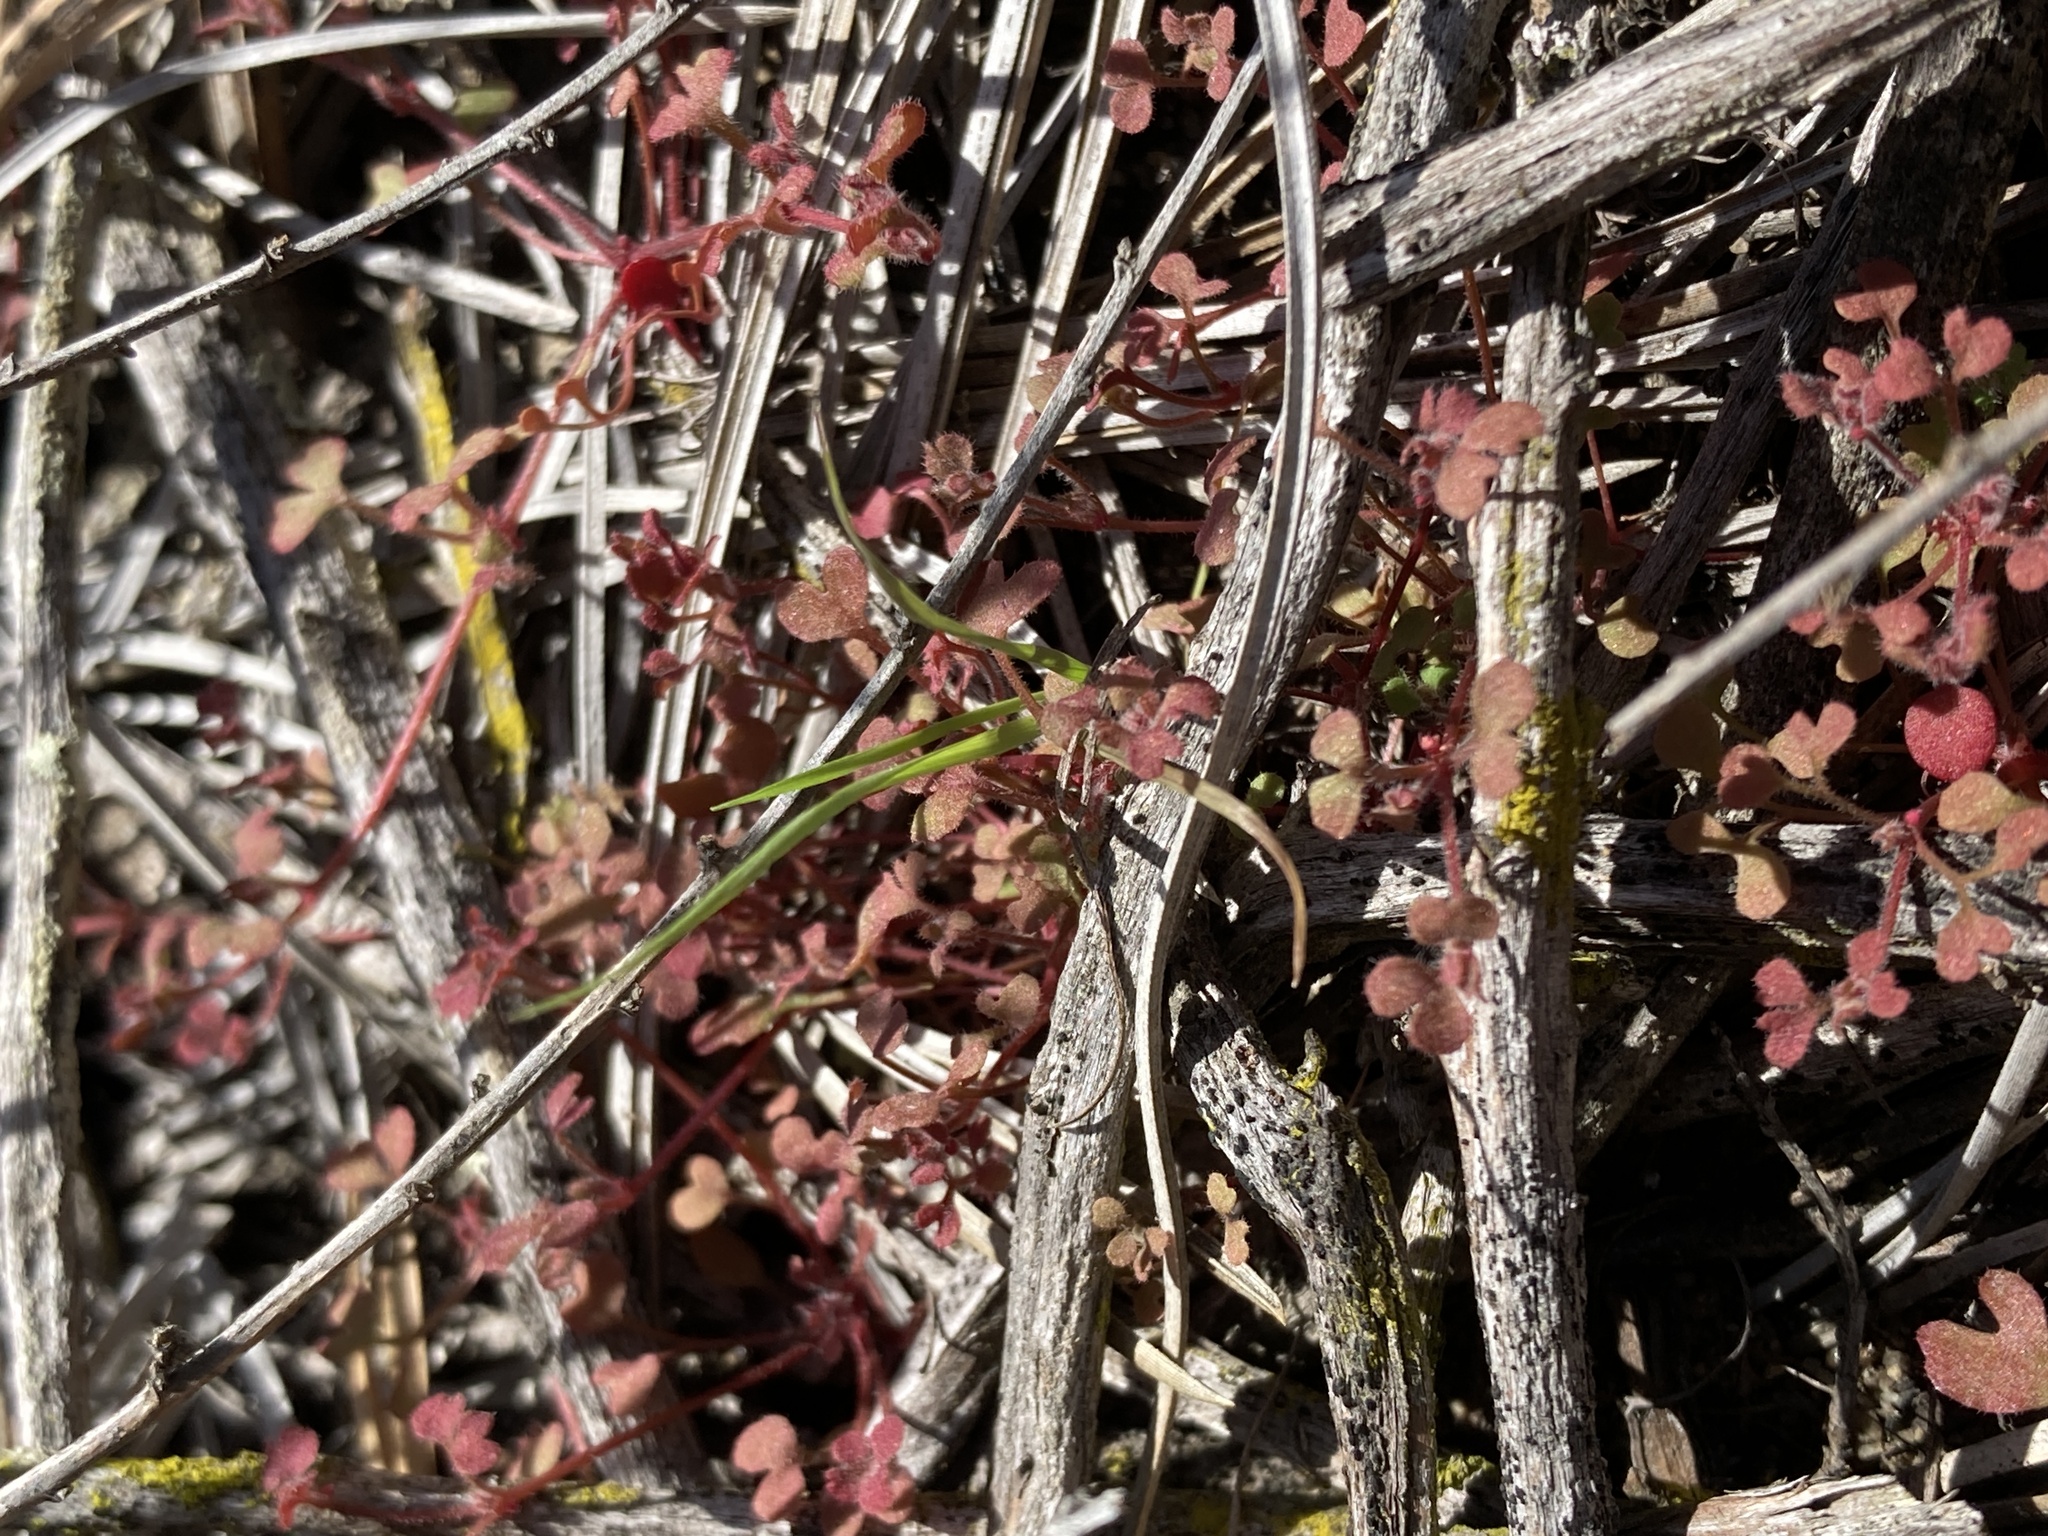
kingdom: Plantae
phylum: Tracheophyta
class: Magnoliopsida
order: Caryophyllales
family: Polygonaceae
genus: Pterostegia
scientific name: Pterostegia drymarioides
